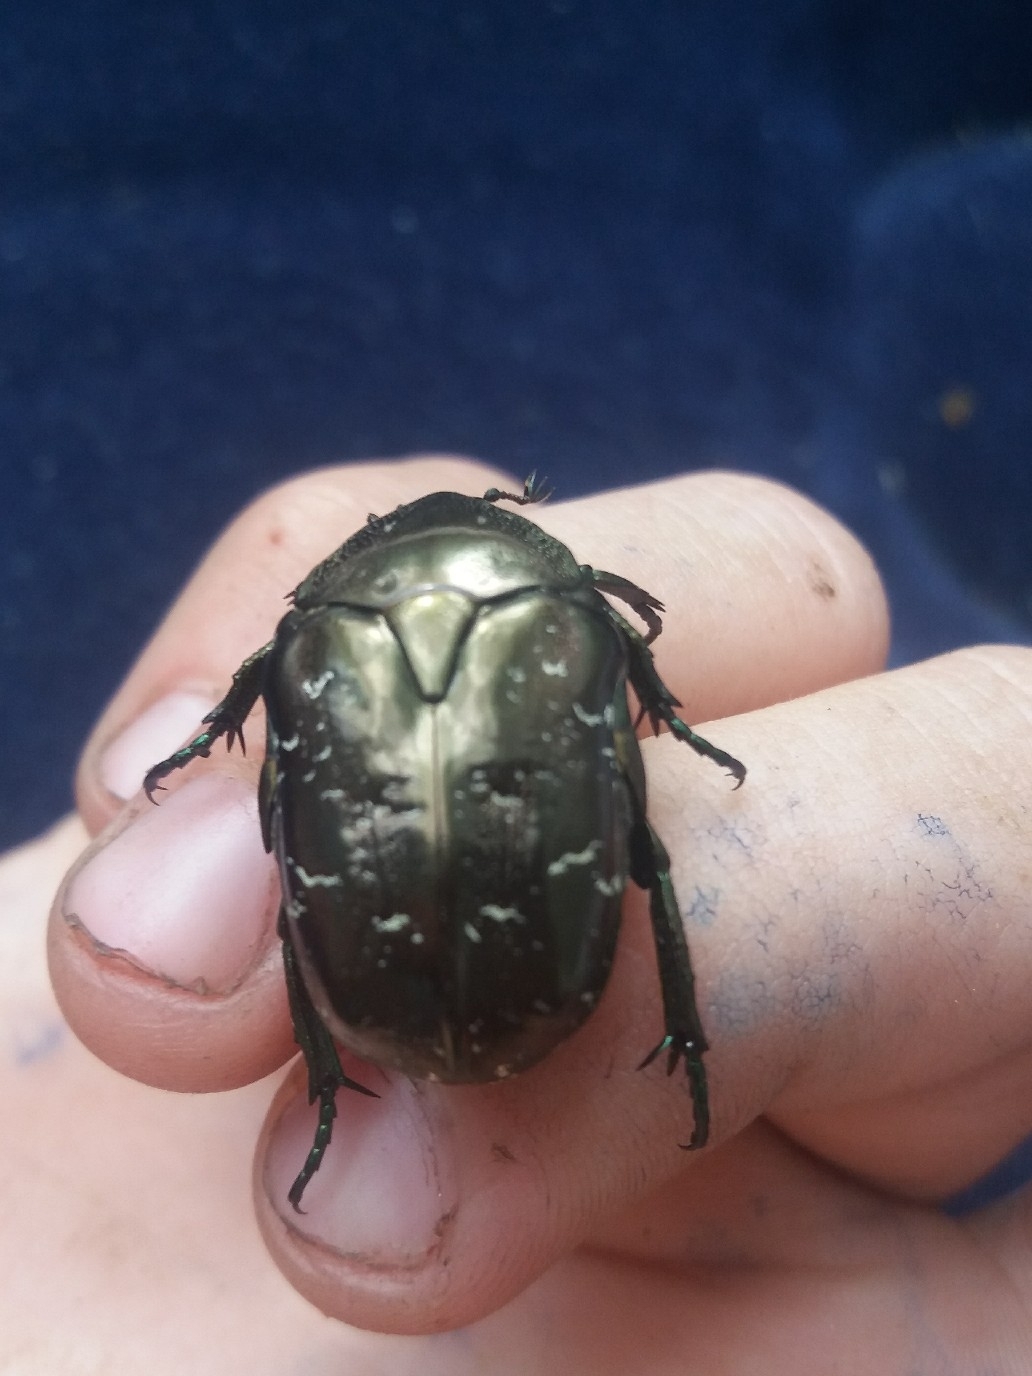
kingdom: Animalia
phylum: Arthropoda
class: Insecta
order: Coleoptera
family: Scarabaeidae
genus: Protaetia
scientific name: Protaetia marmorata
